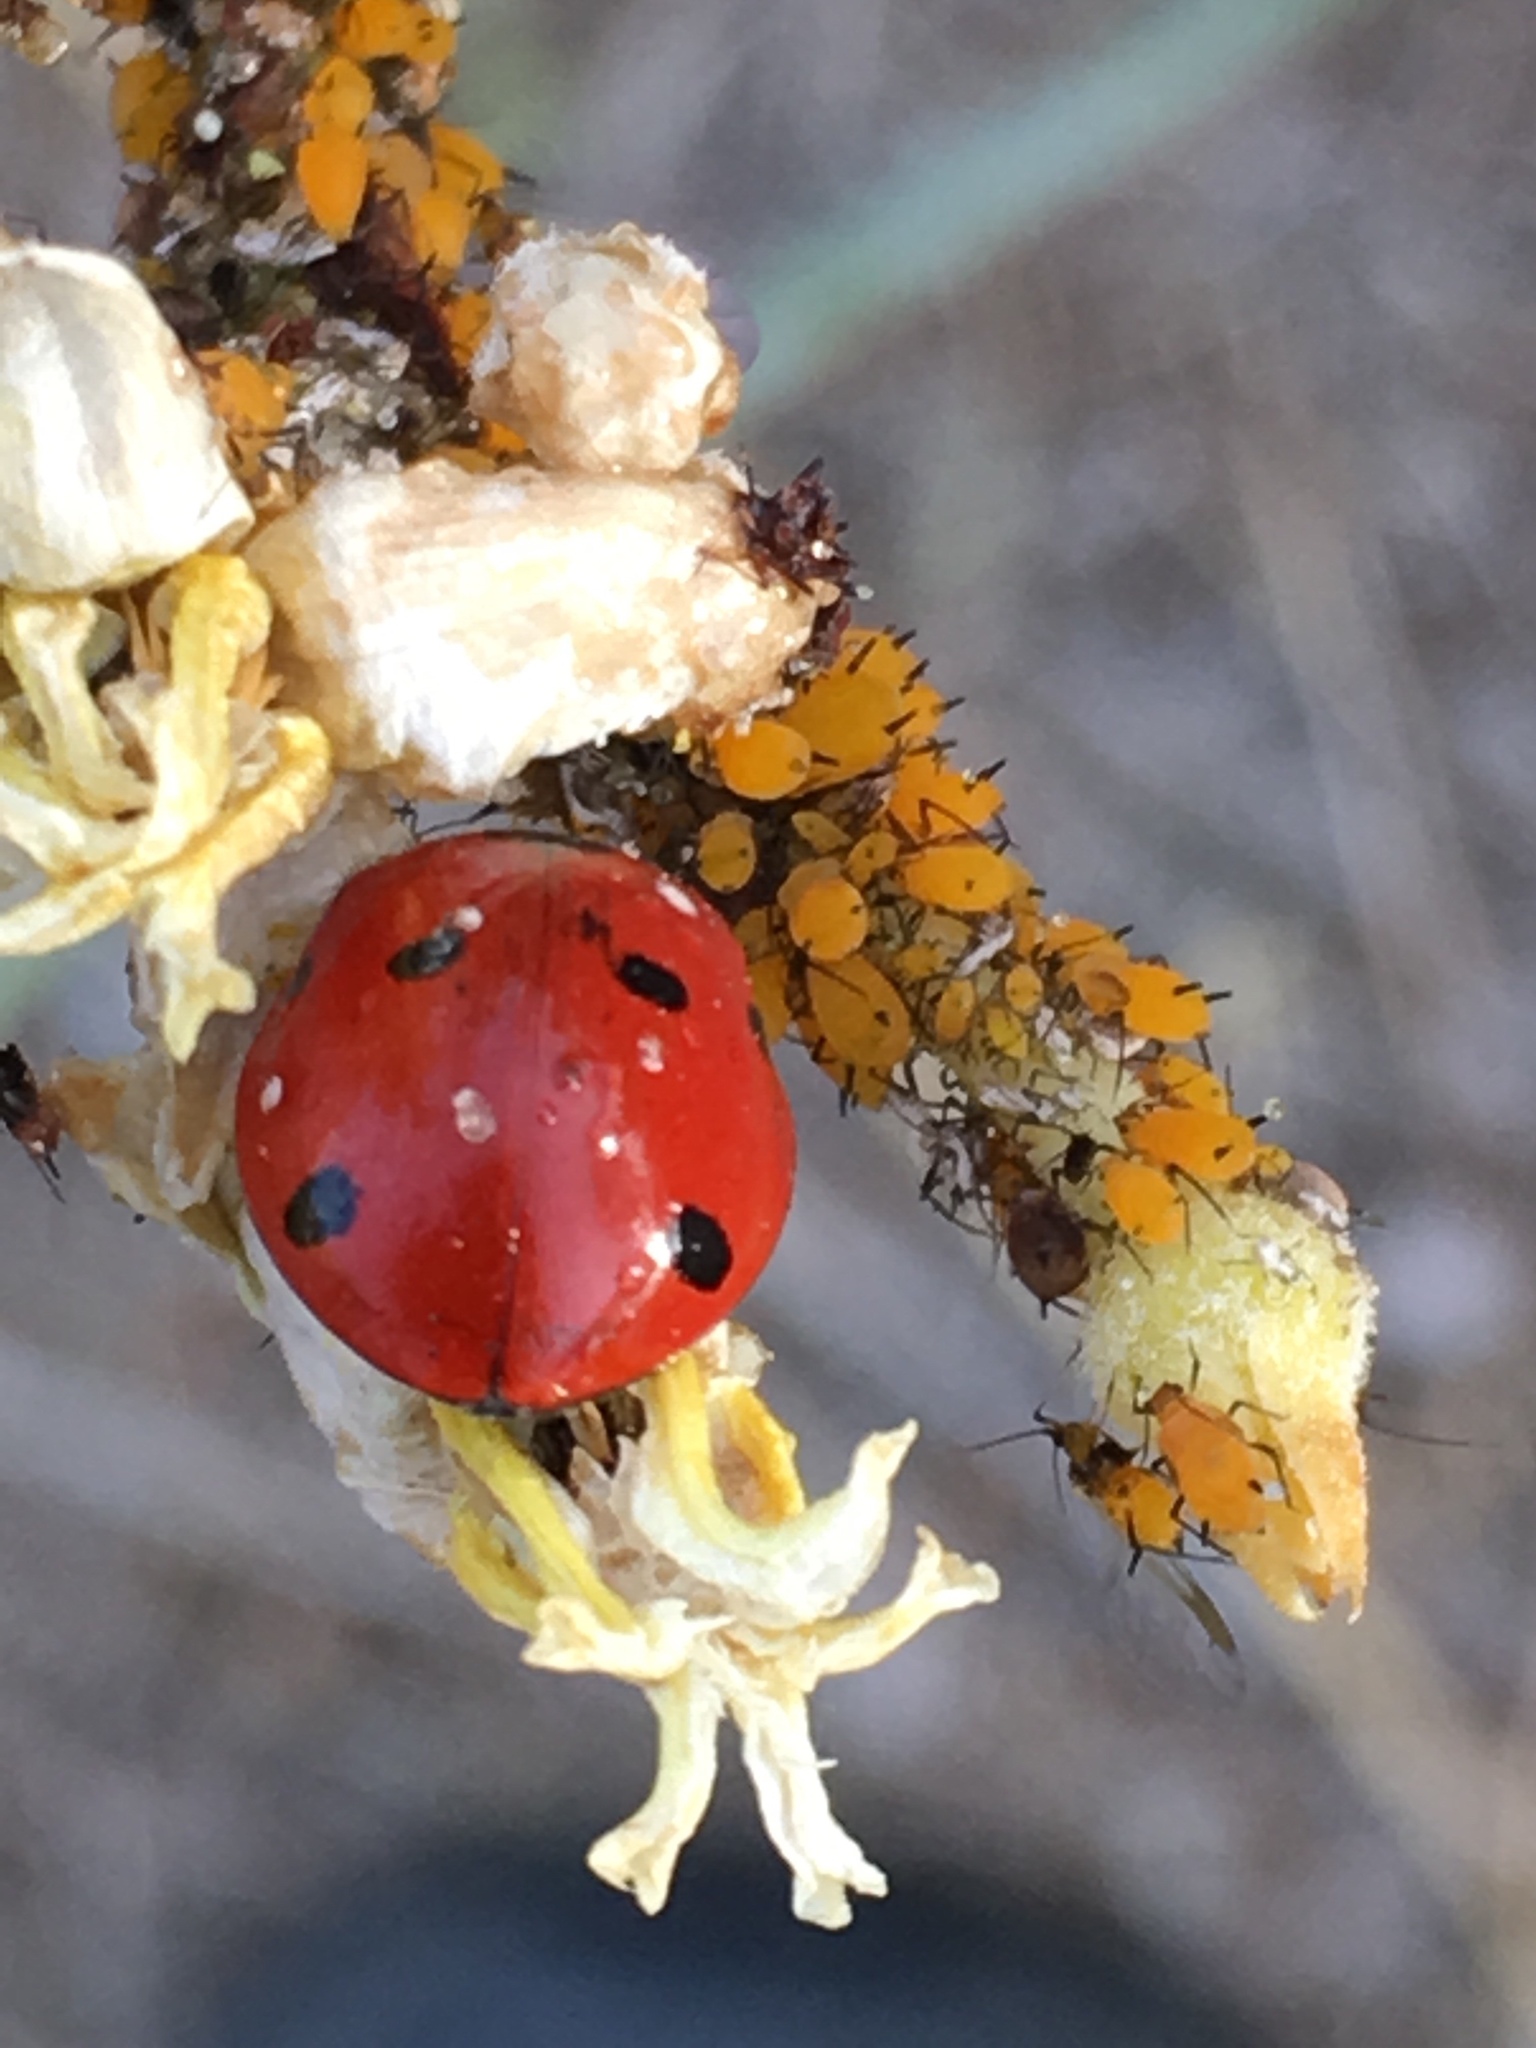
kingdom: Animalia
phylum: Arthropoda
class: Insecta
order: Hemiptera
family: Aphididae
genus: Aphis
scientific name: Aphis nerii
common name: Oleander aphid
